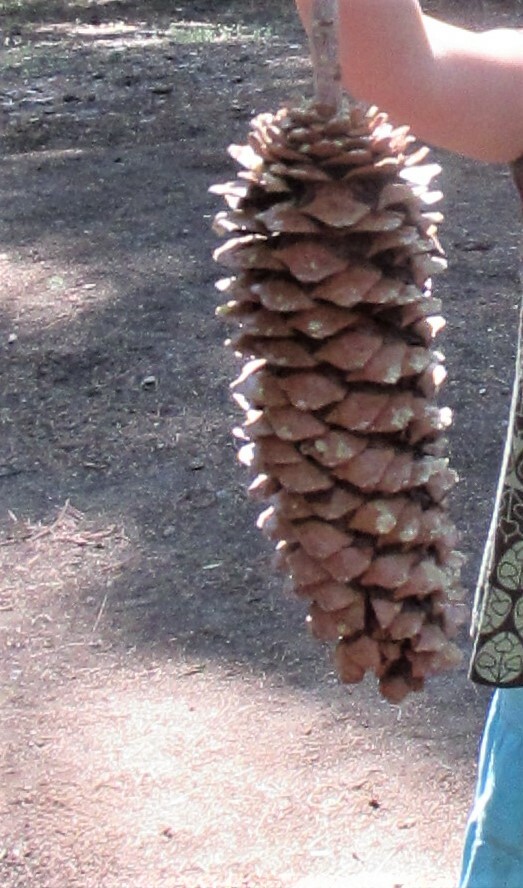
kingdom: Plantae
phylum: Tracheophyta
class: Pinopsida
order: Pinales
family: Pinaceae
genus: Pinus
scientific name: Pinus lambertiana
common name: Sugar pine
